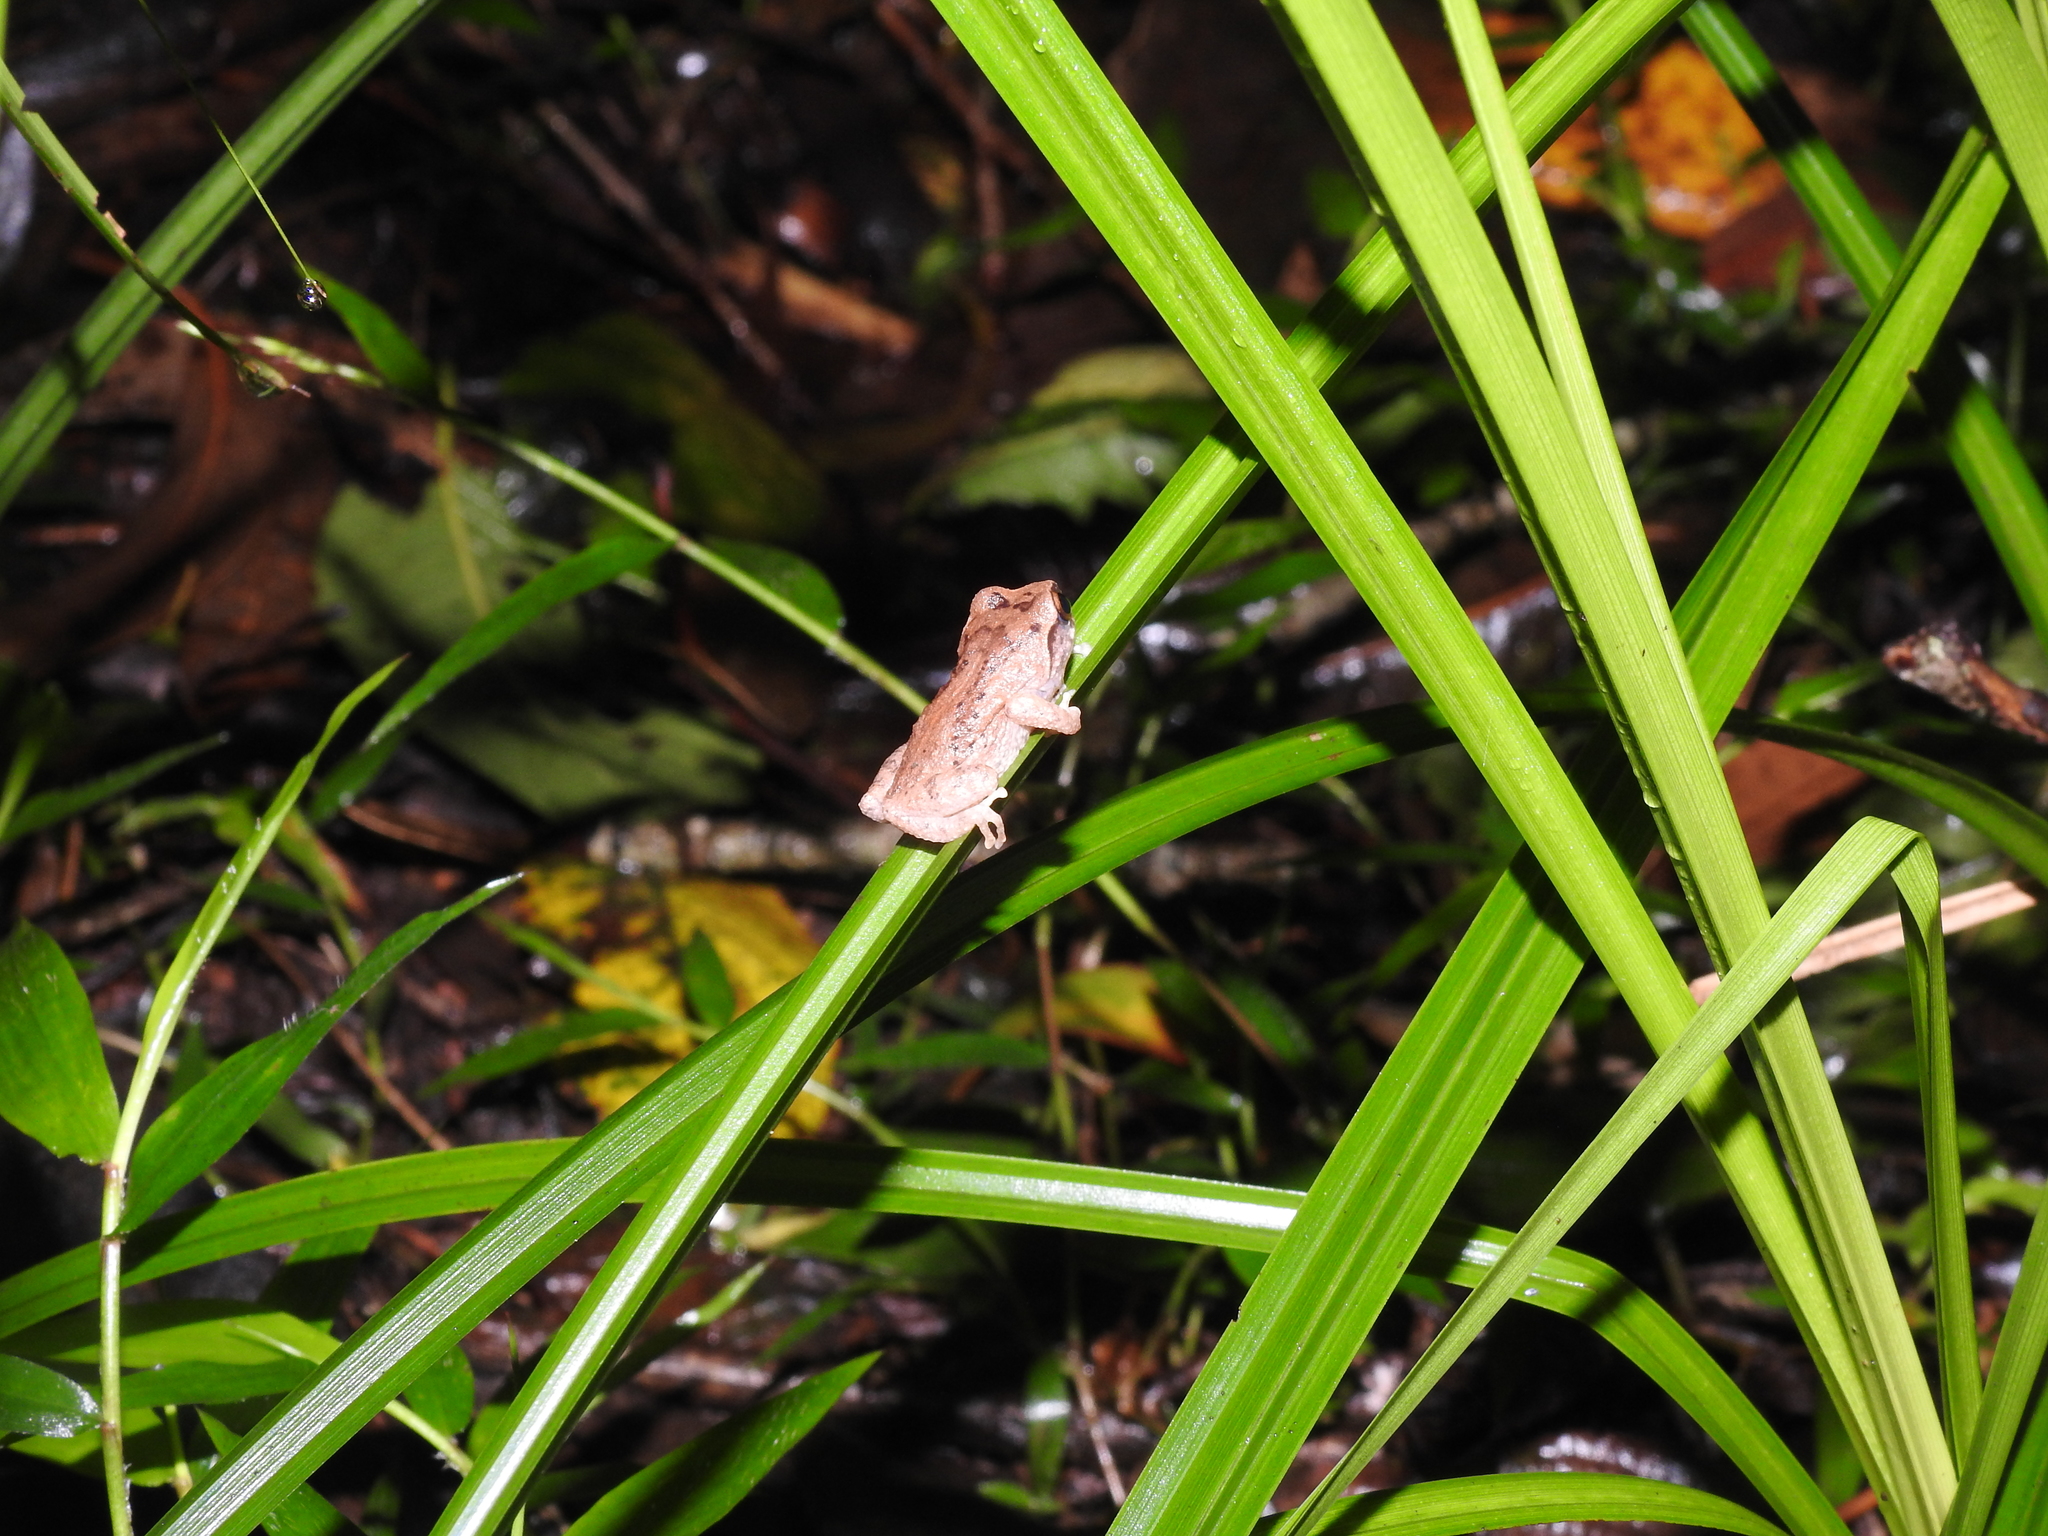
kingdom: Animalia
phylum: Chordata
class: Amphibia
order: Anura
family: Rhacophoridae
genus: Raorchestes
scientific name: Raorchestes dubois
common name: Koadaikanal bush frog
